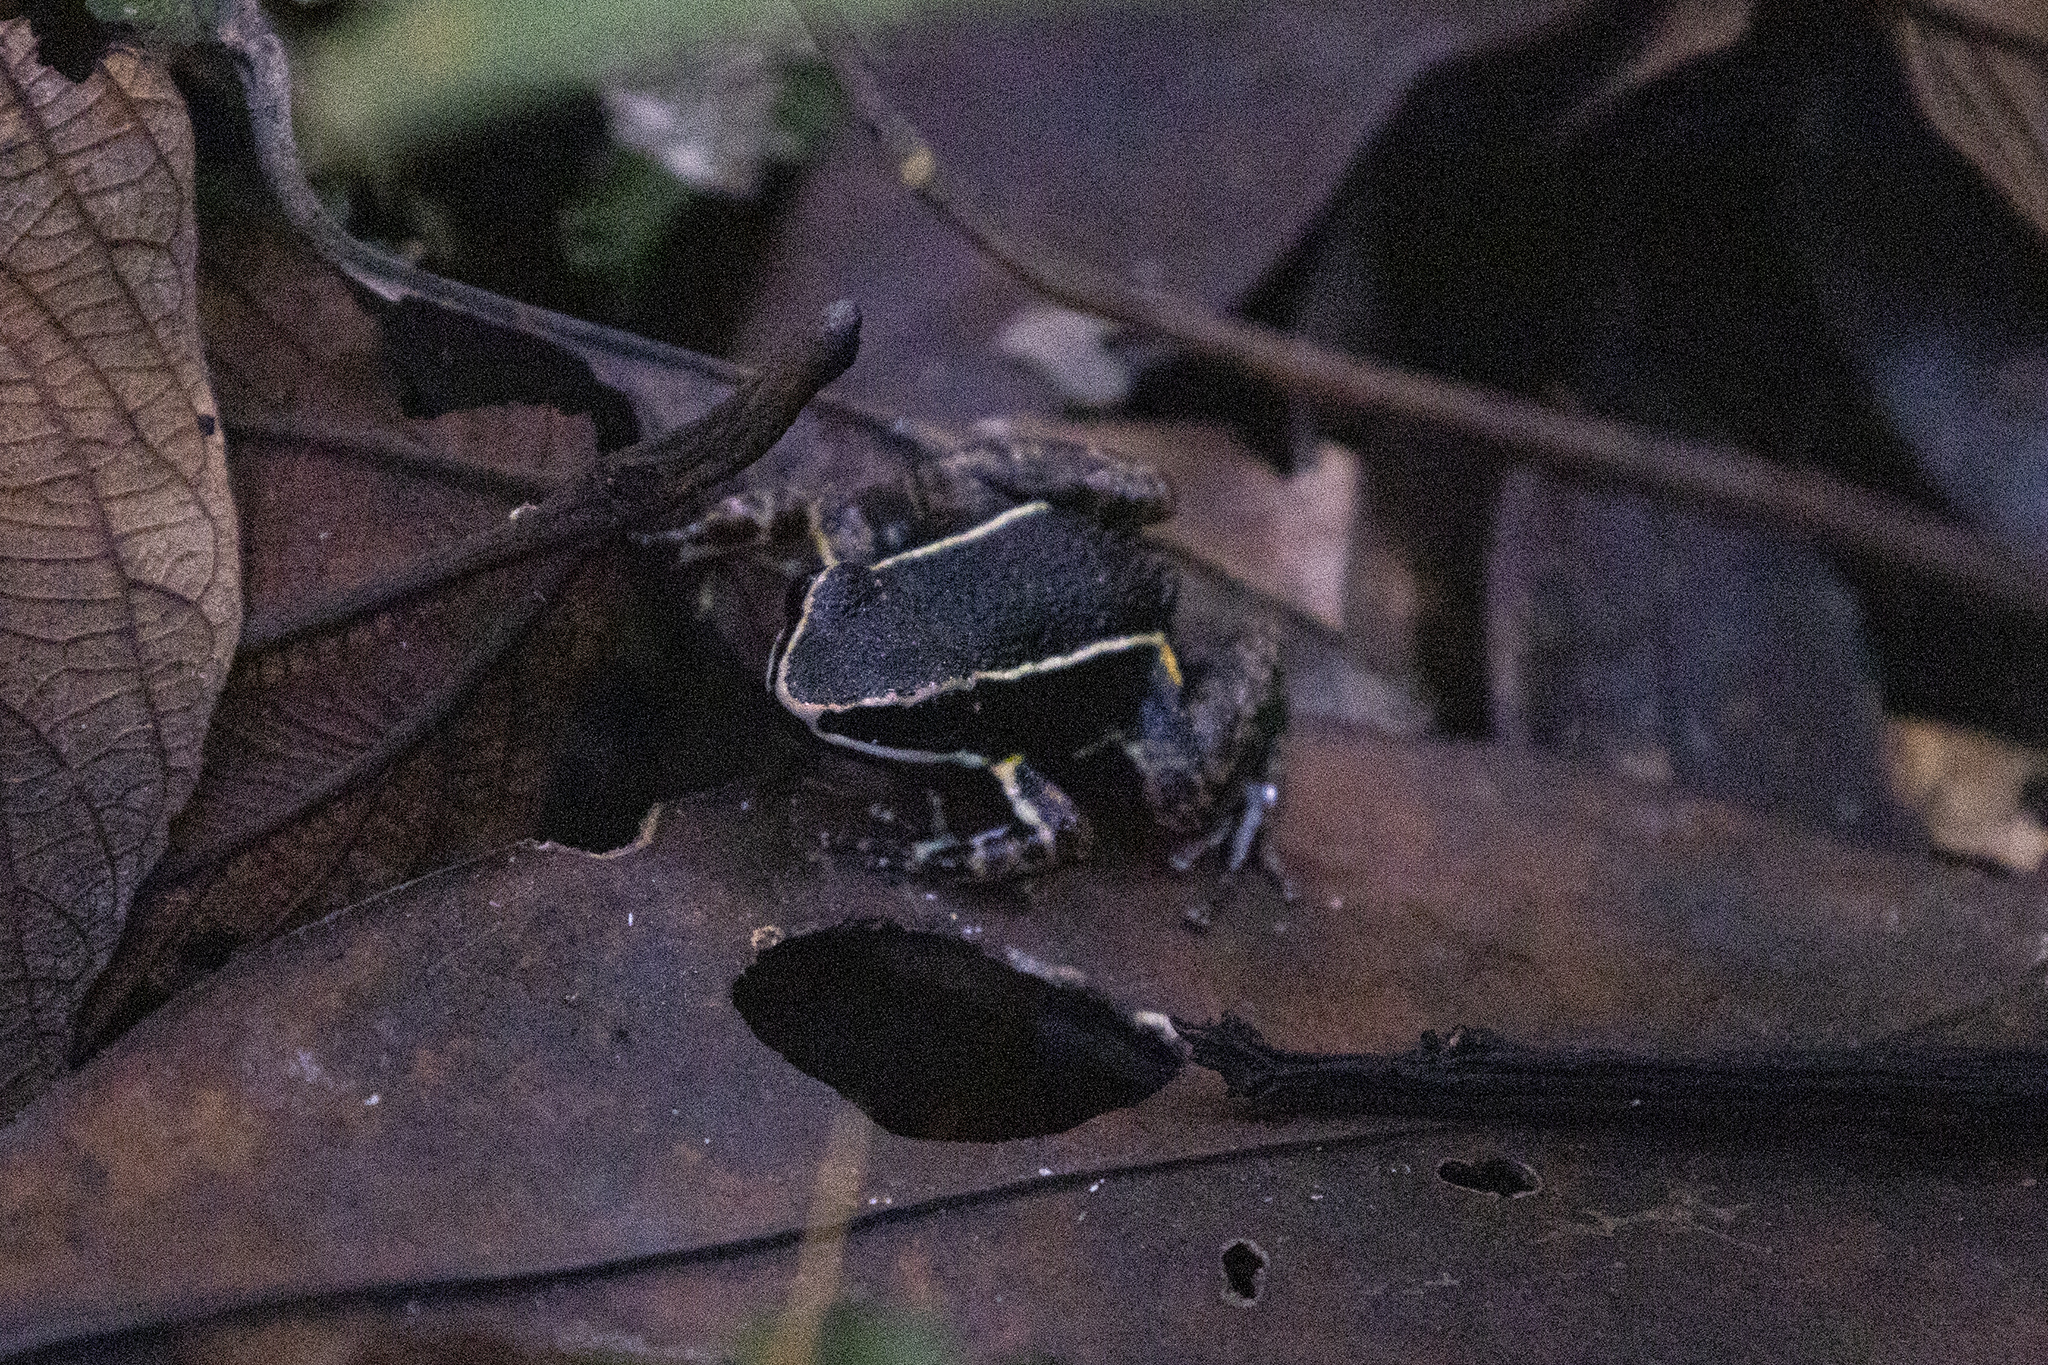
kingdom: Animalia
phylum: Chordata
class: Amphibia
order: Anura
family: Dendrobatidae
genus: Ameerega
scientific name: Ameerega hahneli
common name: Yurimaguas pioson frog
